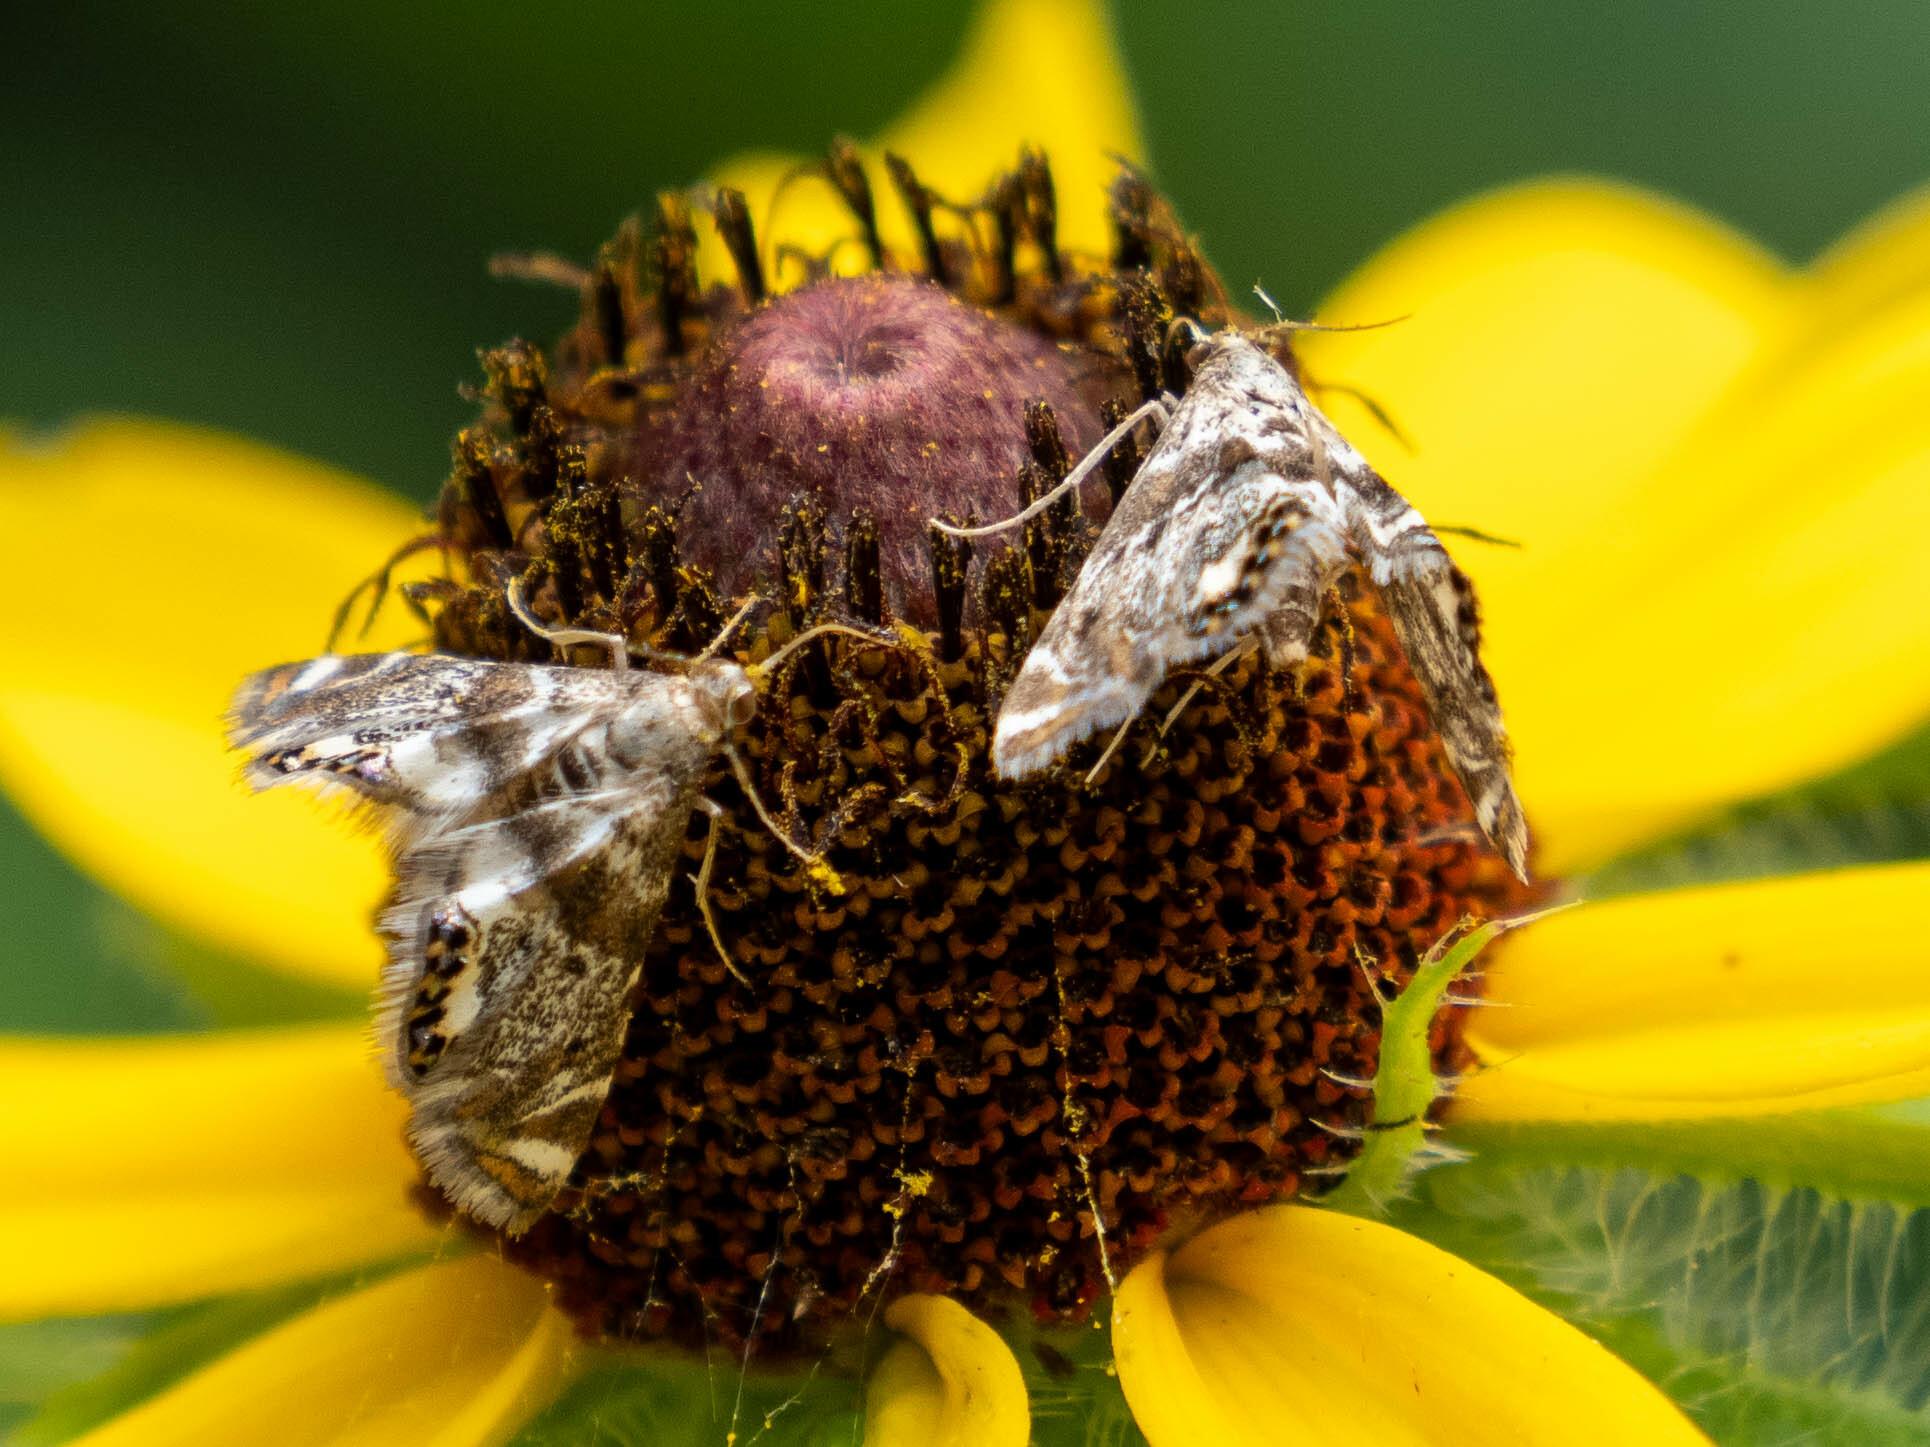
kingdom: Animalia
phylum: Arthropoda
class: Insecta
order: Lepidoptera
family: Crambidae
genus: Petrophila
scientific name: Petrophila fulicalis
